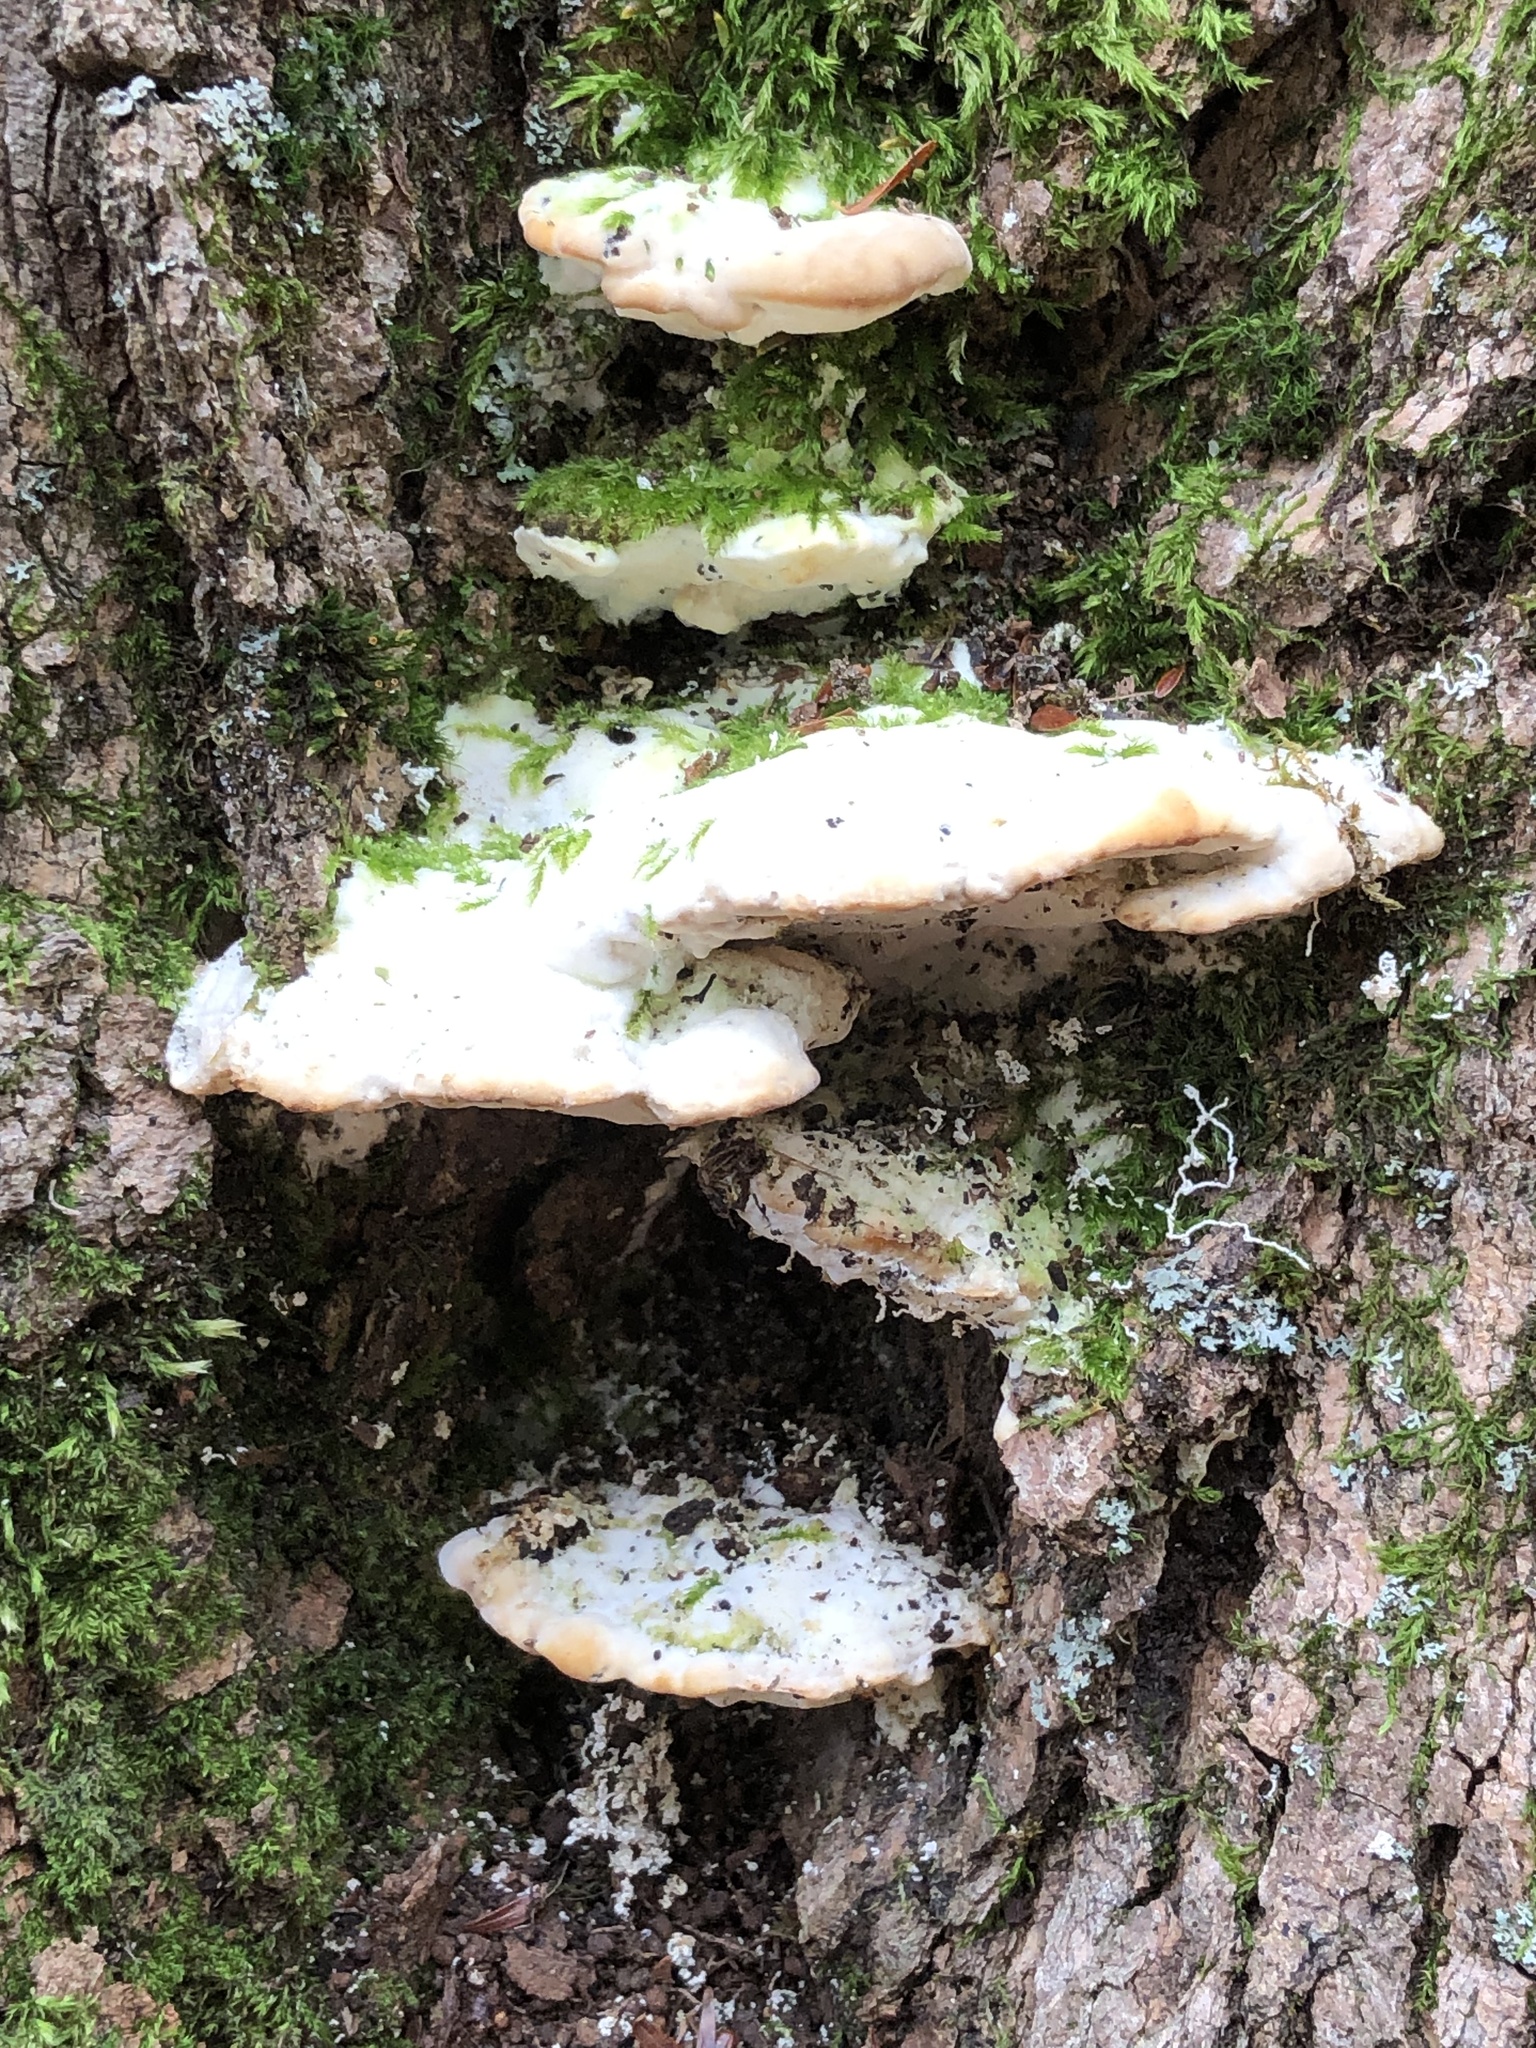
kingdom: Fungi
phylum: Basidiomycota
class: Agaricomycetes
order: Hymenochaetales
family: Oxyporaceae
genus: Oxyporus
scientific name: Oxyporus populinus
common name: Poplar bracket
